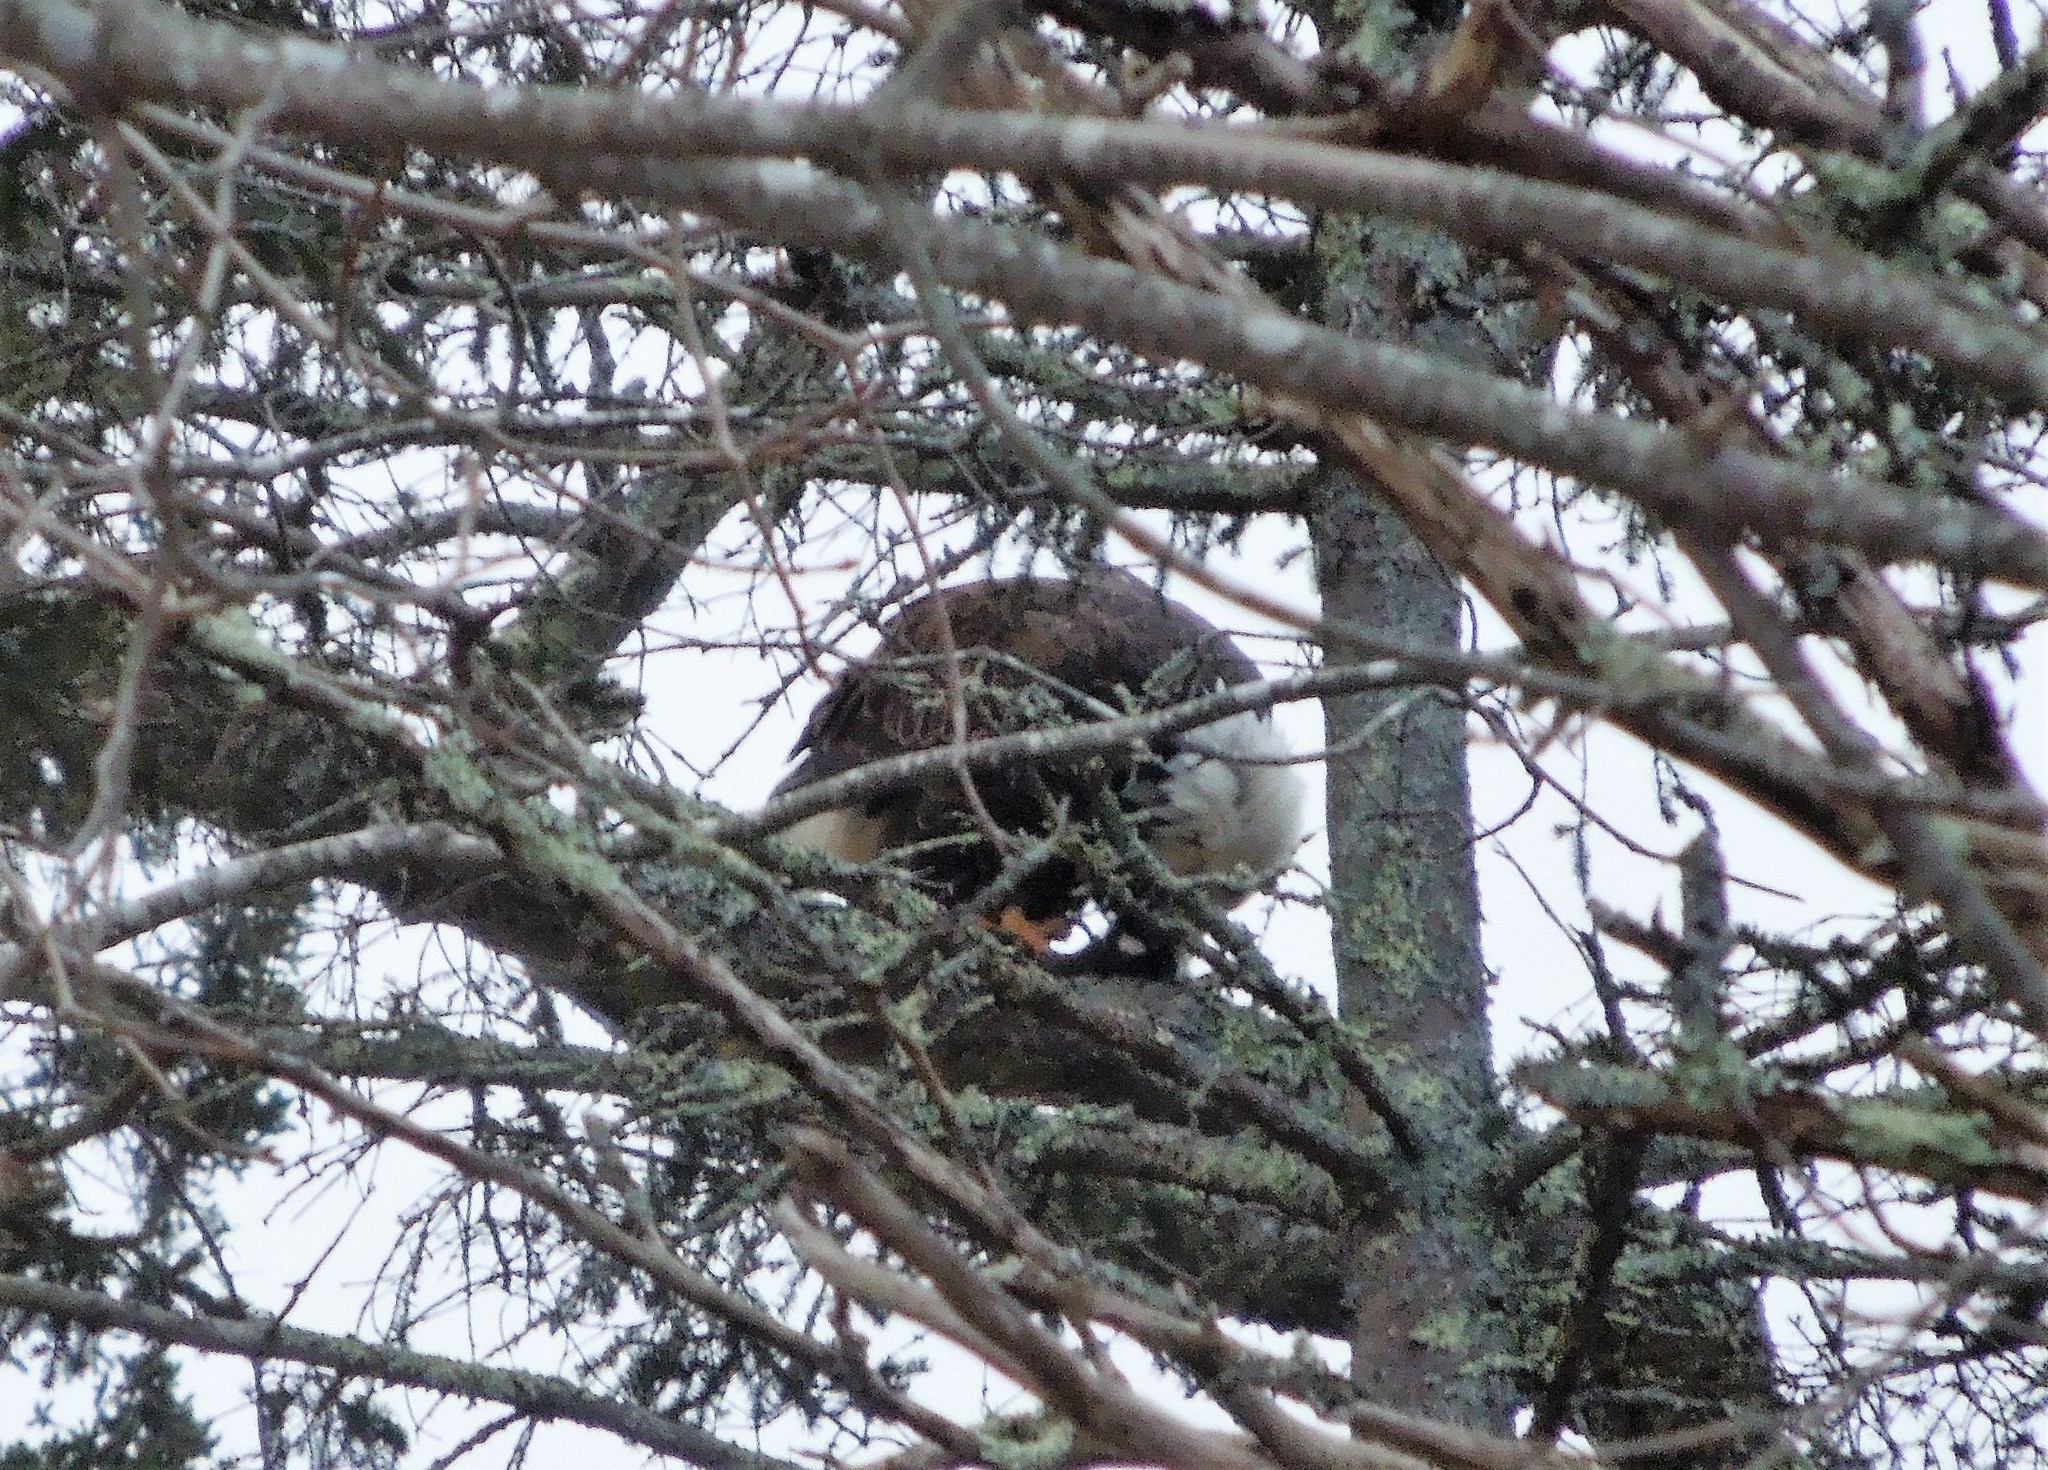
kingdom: Animalia
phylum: Chordata
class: Aves
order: Accipitriformes
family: Accipitridae
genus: Haliaeetus
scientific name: Haliaeetus leucocephalus
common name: Bald eagle
